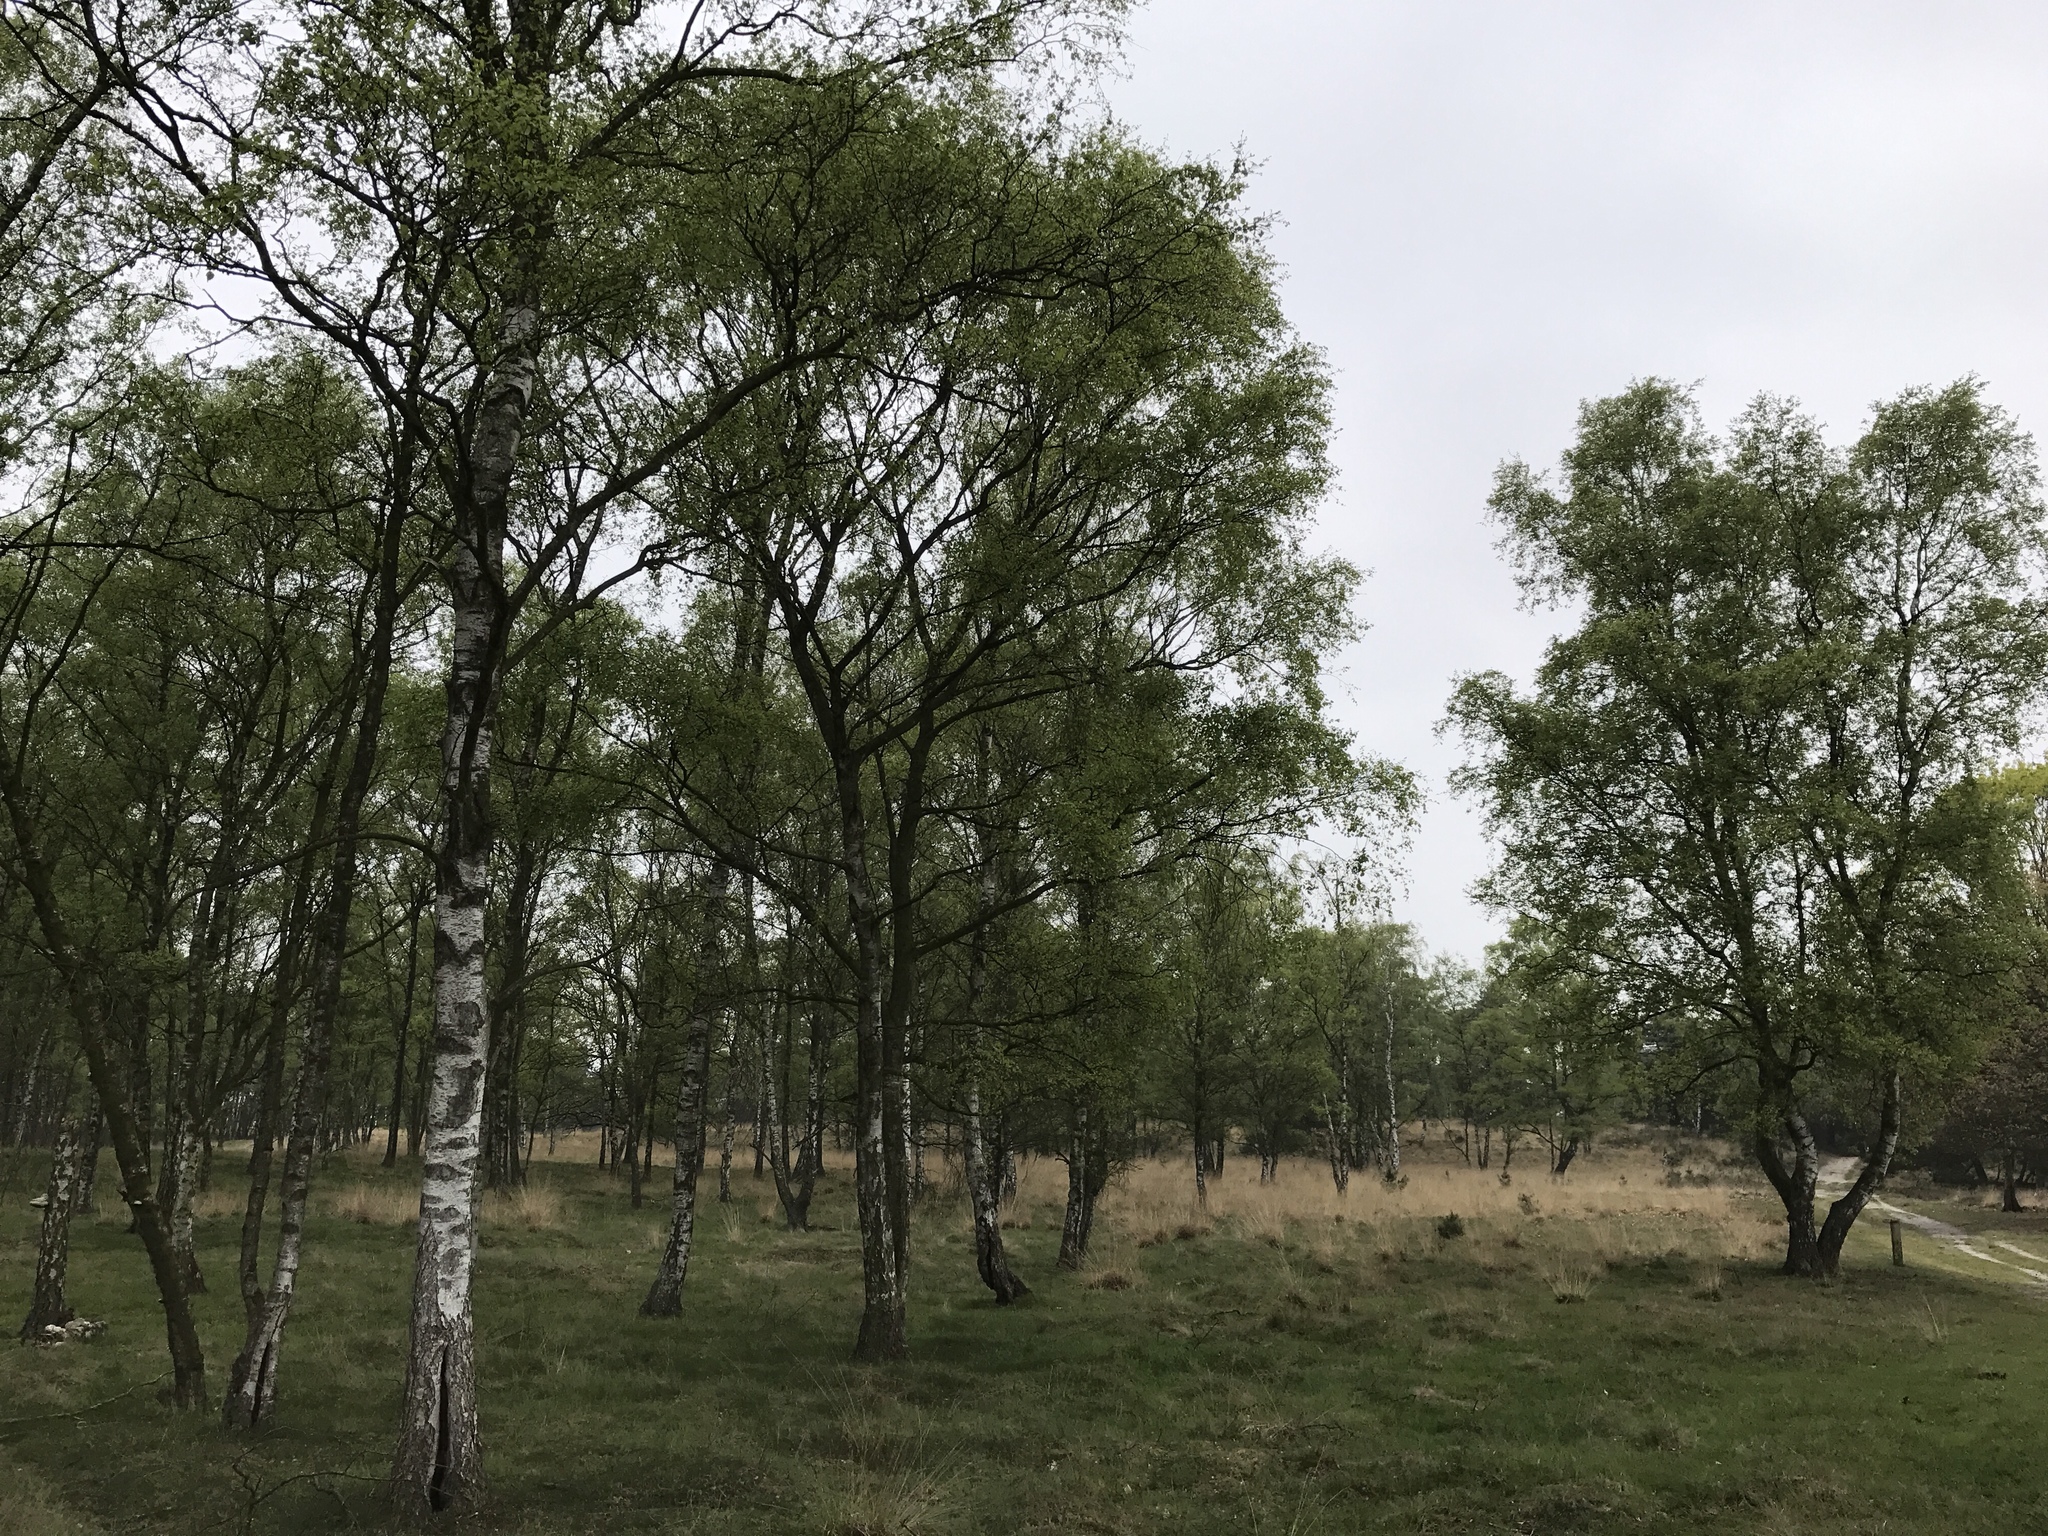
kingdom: Plantae
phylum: Tracheophyta
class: Magnoliopsida
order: Fagales
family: Betulaceae
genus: Betula
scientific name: Betula pendula
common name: Silver birch
